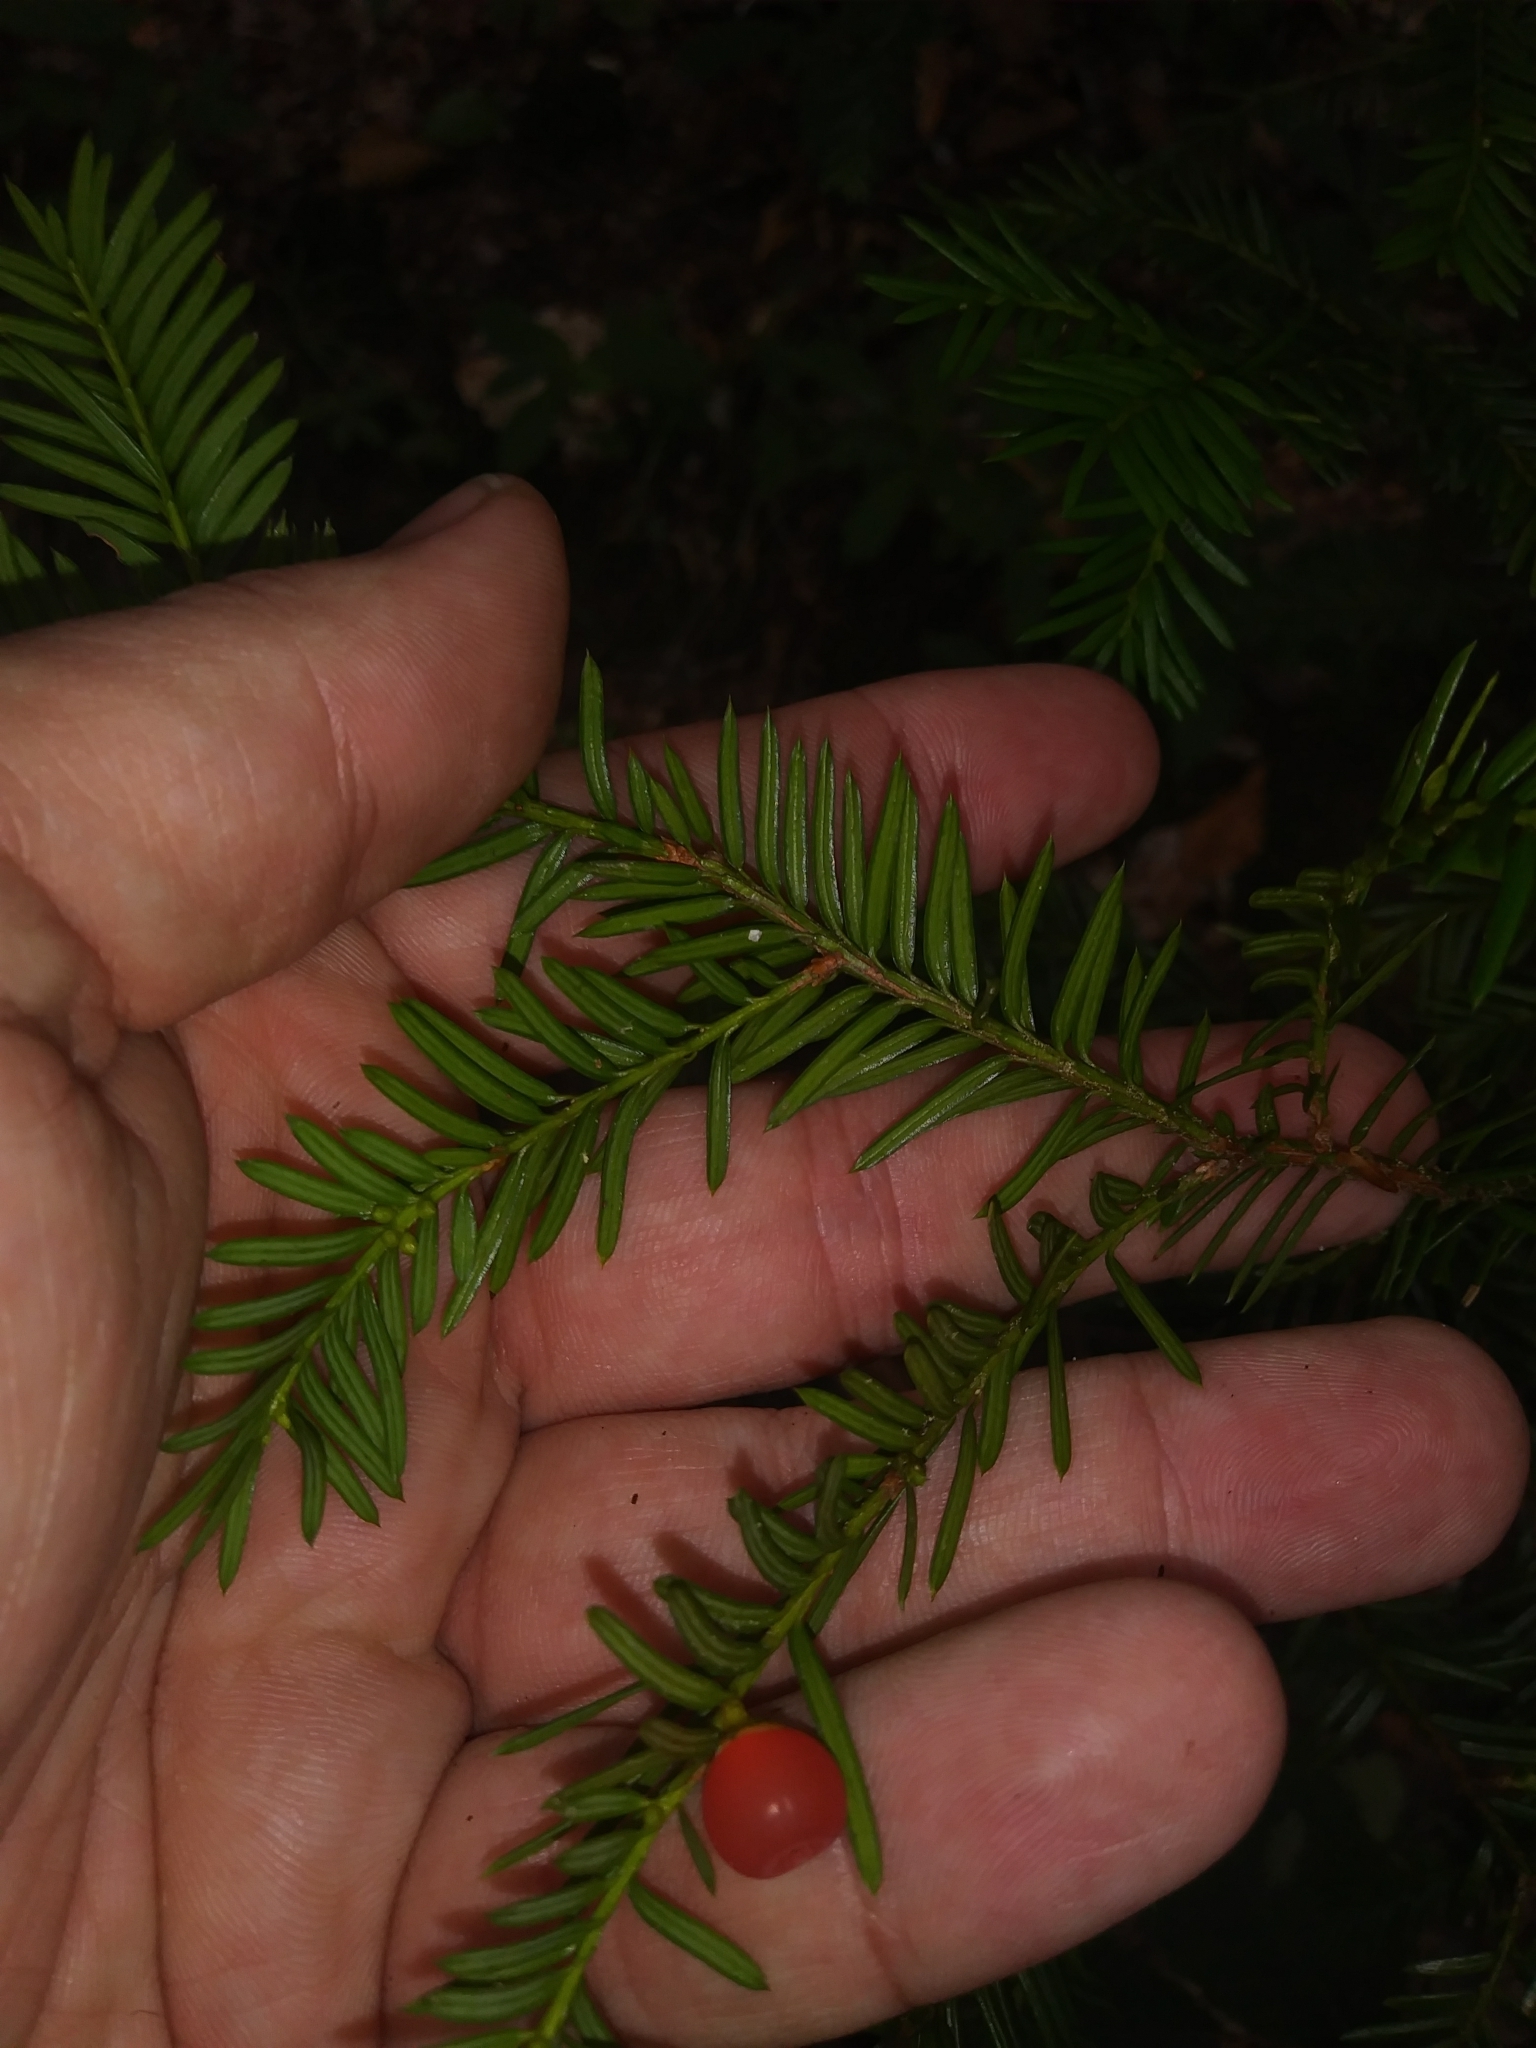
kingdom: Plantae
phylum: Tracheophyta
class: Pinopsida
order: Pinales
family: Taxaceae
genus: Taxus
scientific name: Taxus canadensis
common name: American yew
